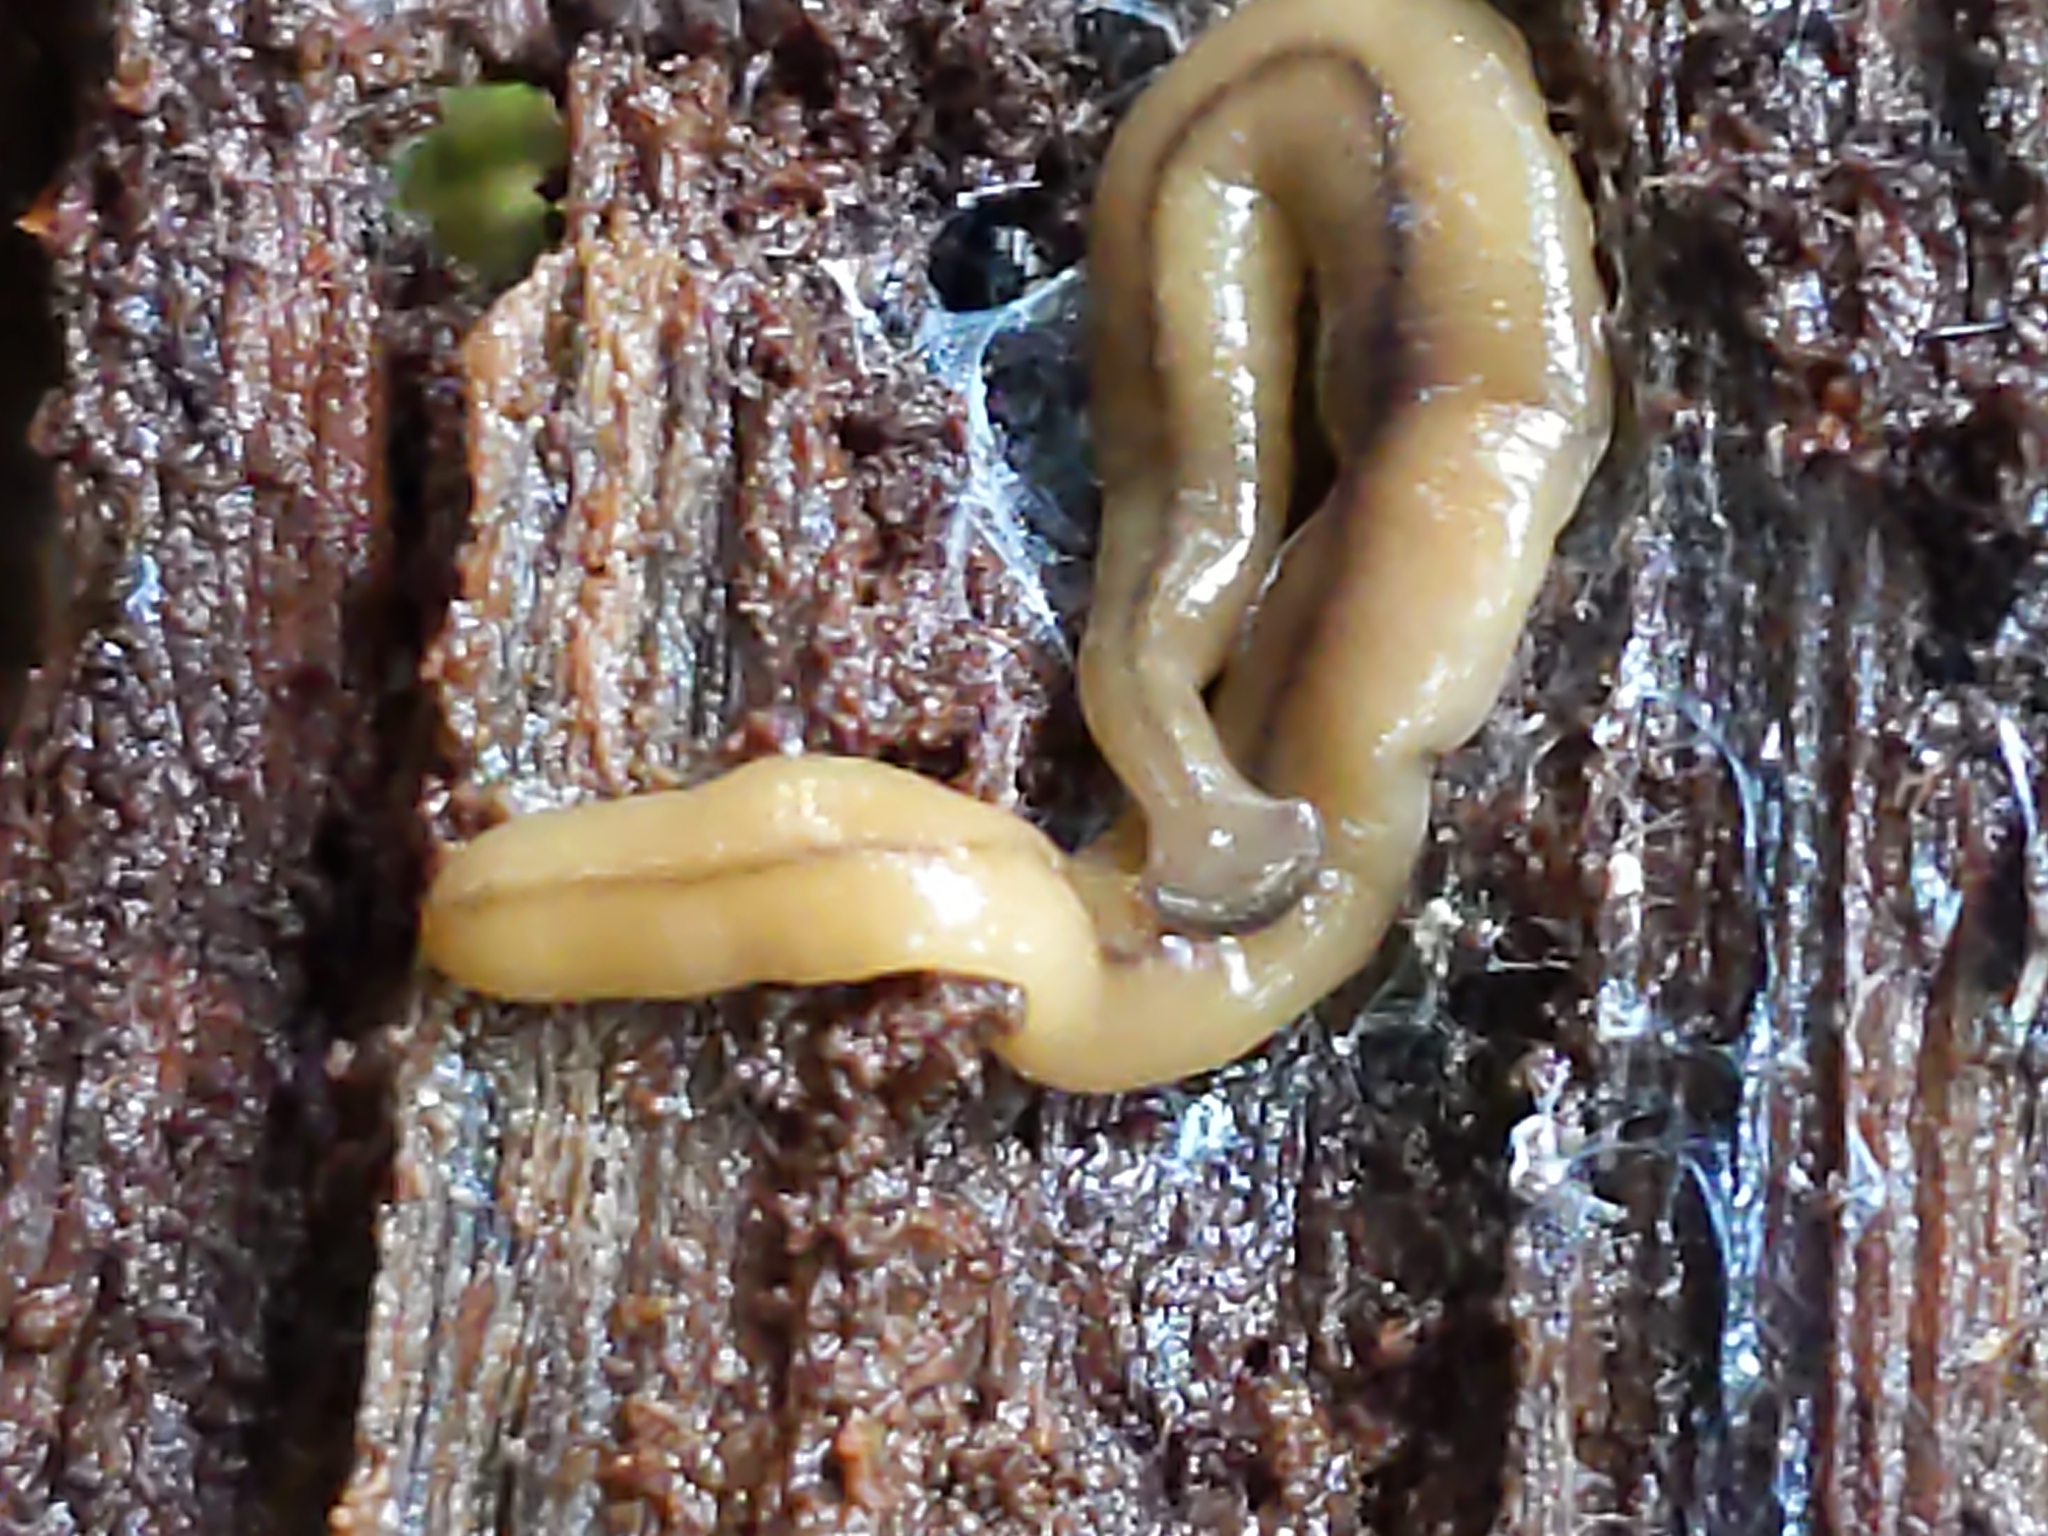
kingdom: Animalia
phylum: Platyhelminthes
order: Tricladida
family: Geoplanidae
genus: Bipalium
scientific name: Bipalium adventitium
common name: Land planarian
